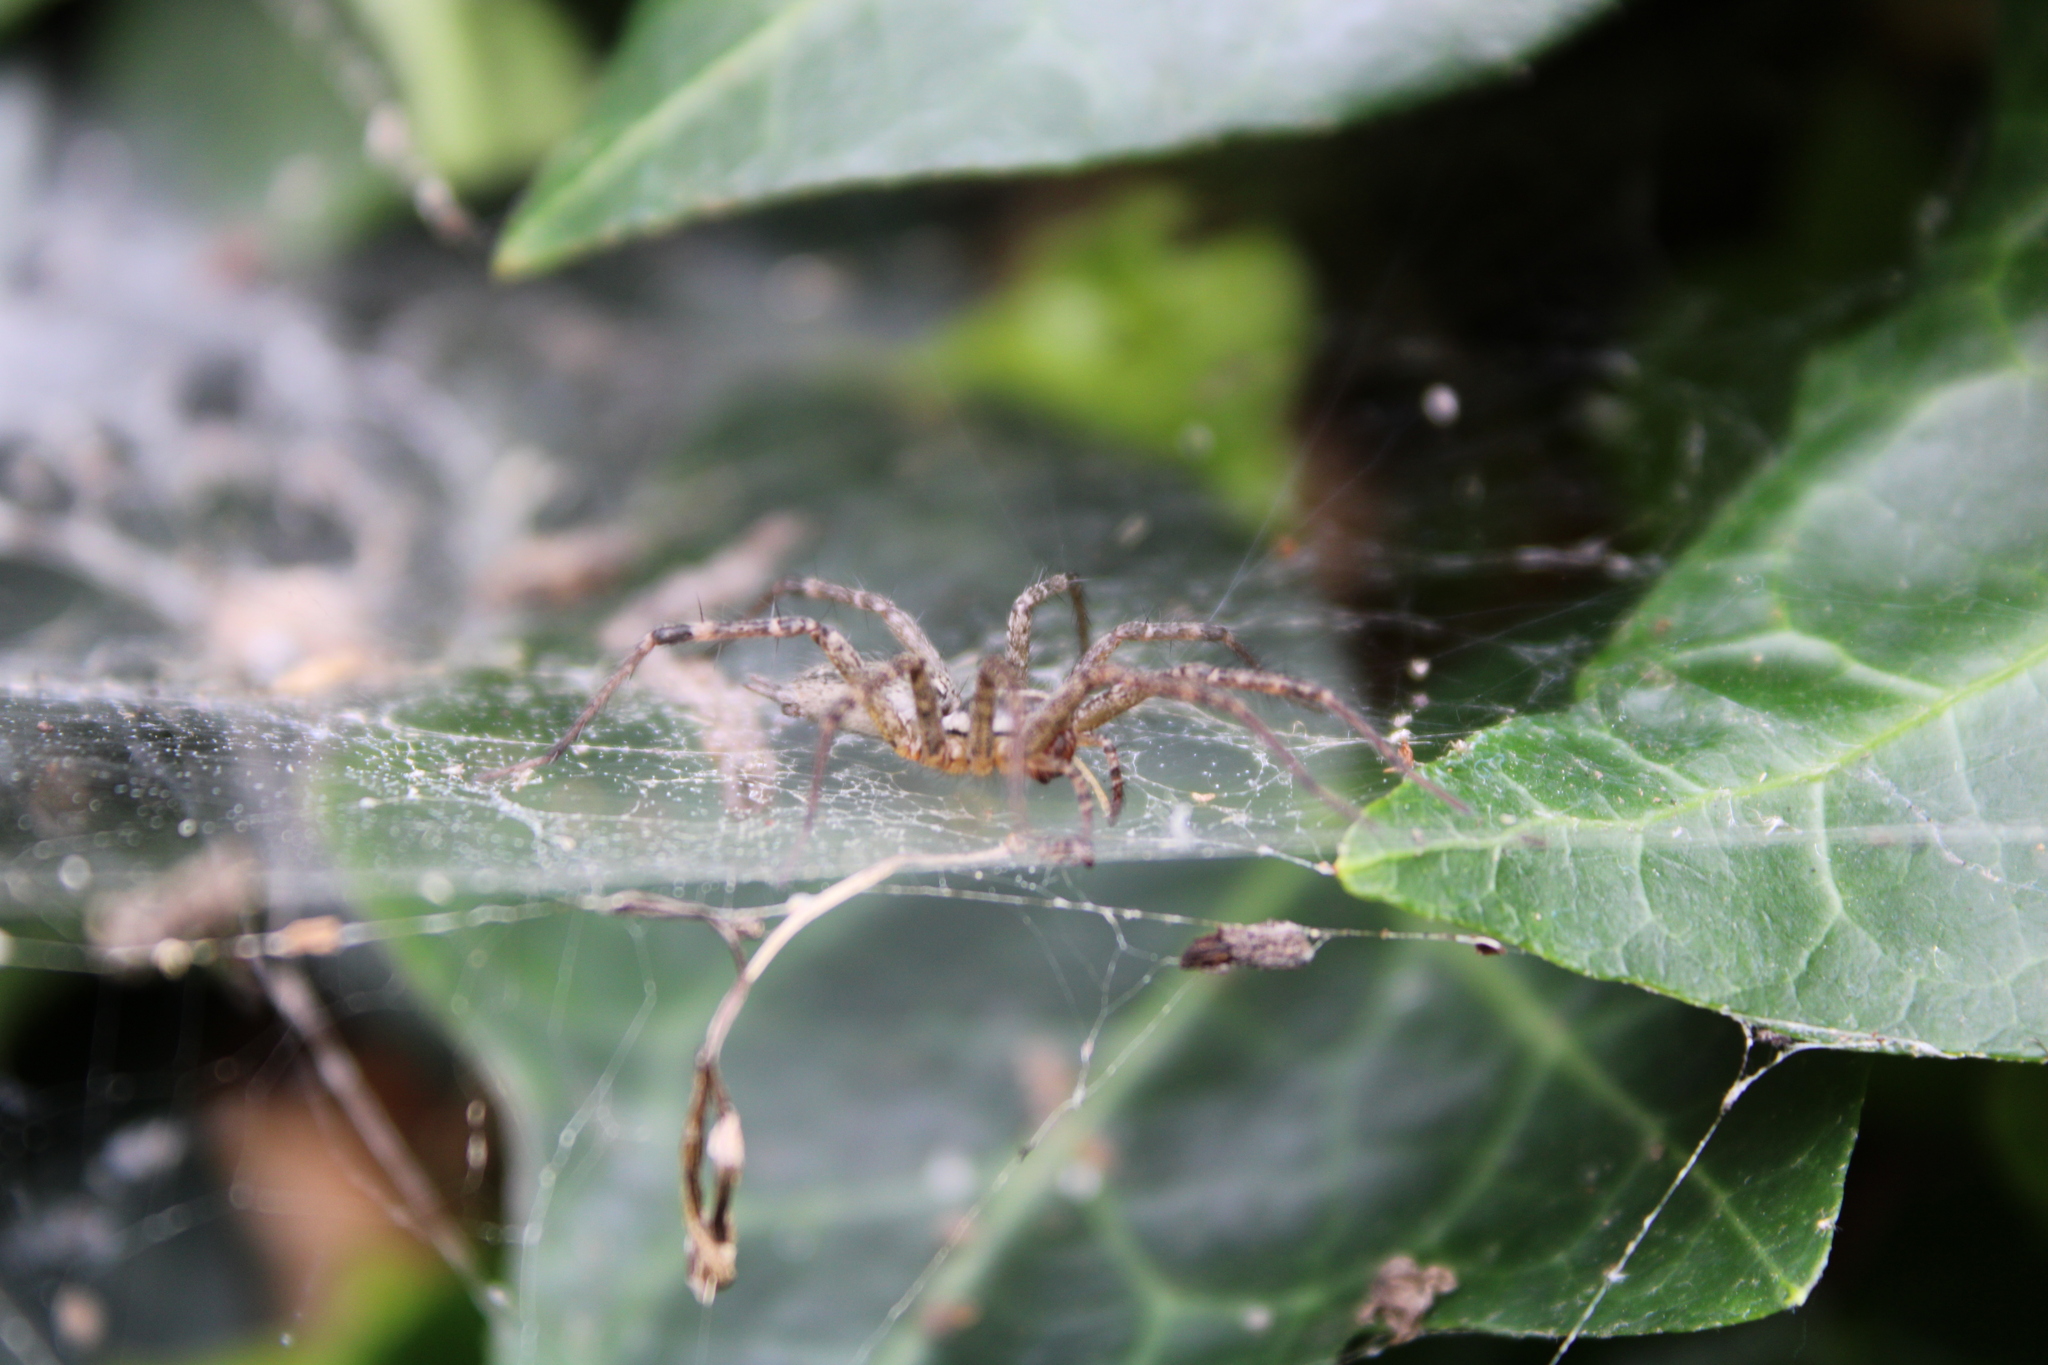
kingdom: Animalia
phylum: Arthropoda
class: Arachnida
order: Araneae
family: Agelenidae
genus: Agelenopsis
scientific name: Agelenopsis
